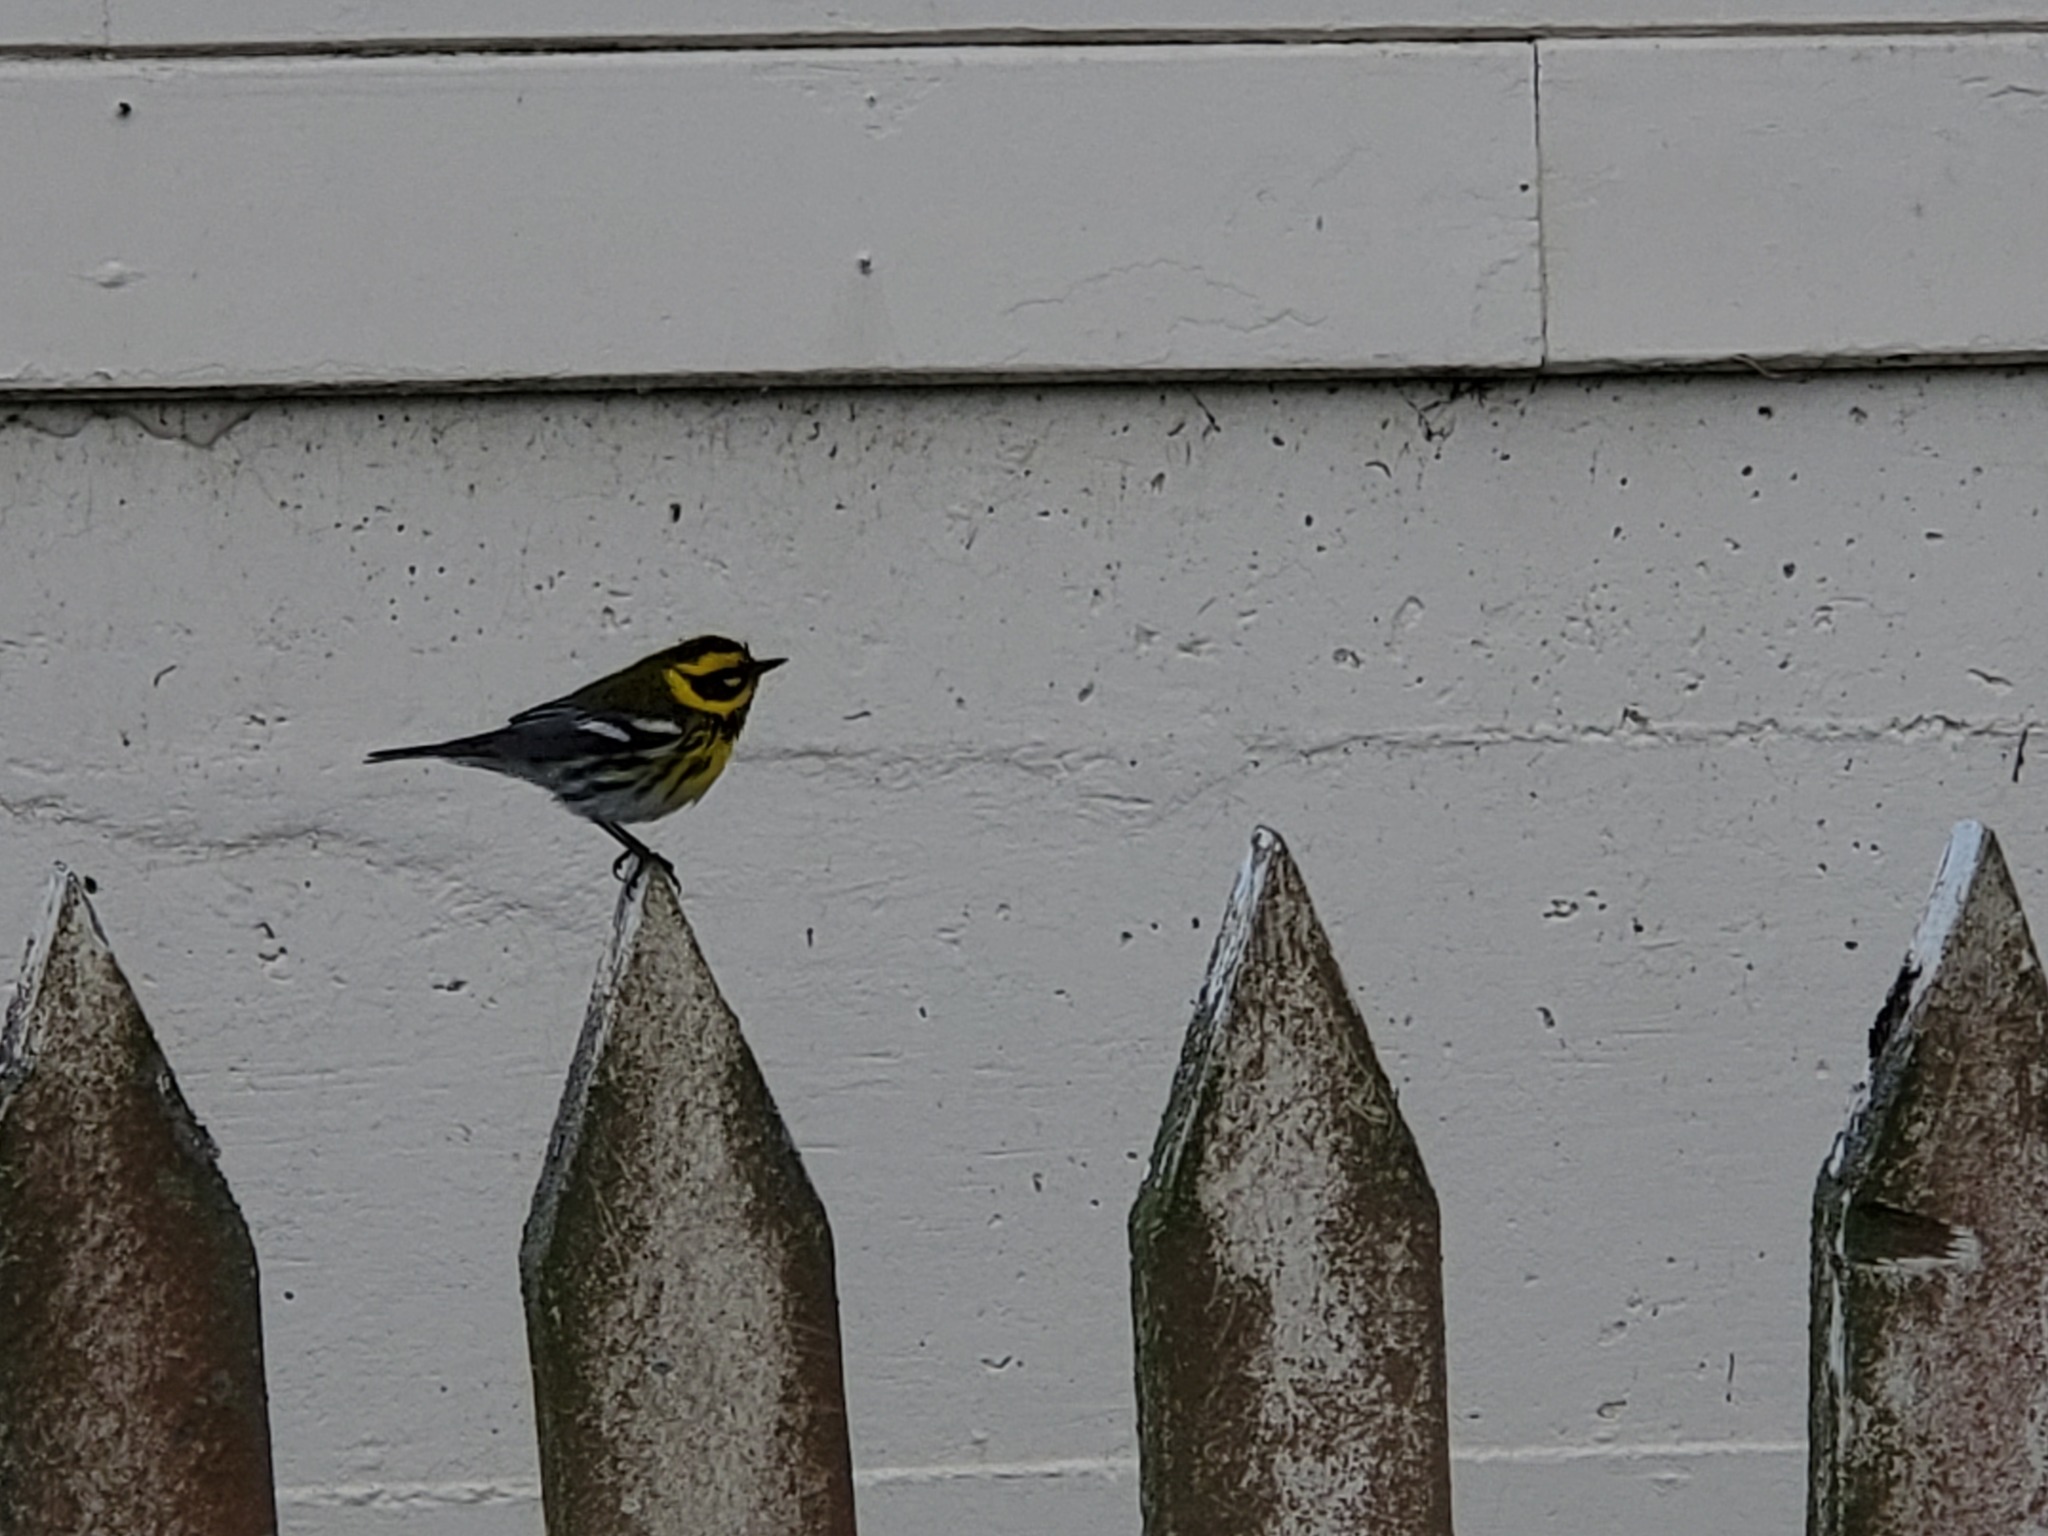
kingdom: Animalia
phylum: Chordata
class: Aves
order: Passeriformes
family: Parulidae
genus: Setophaga
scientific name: Setophaga townsendi
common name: Townsend's warbler
